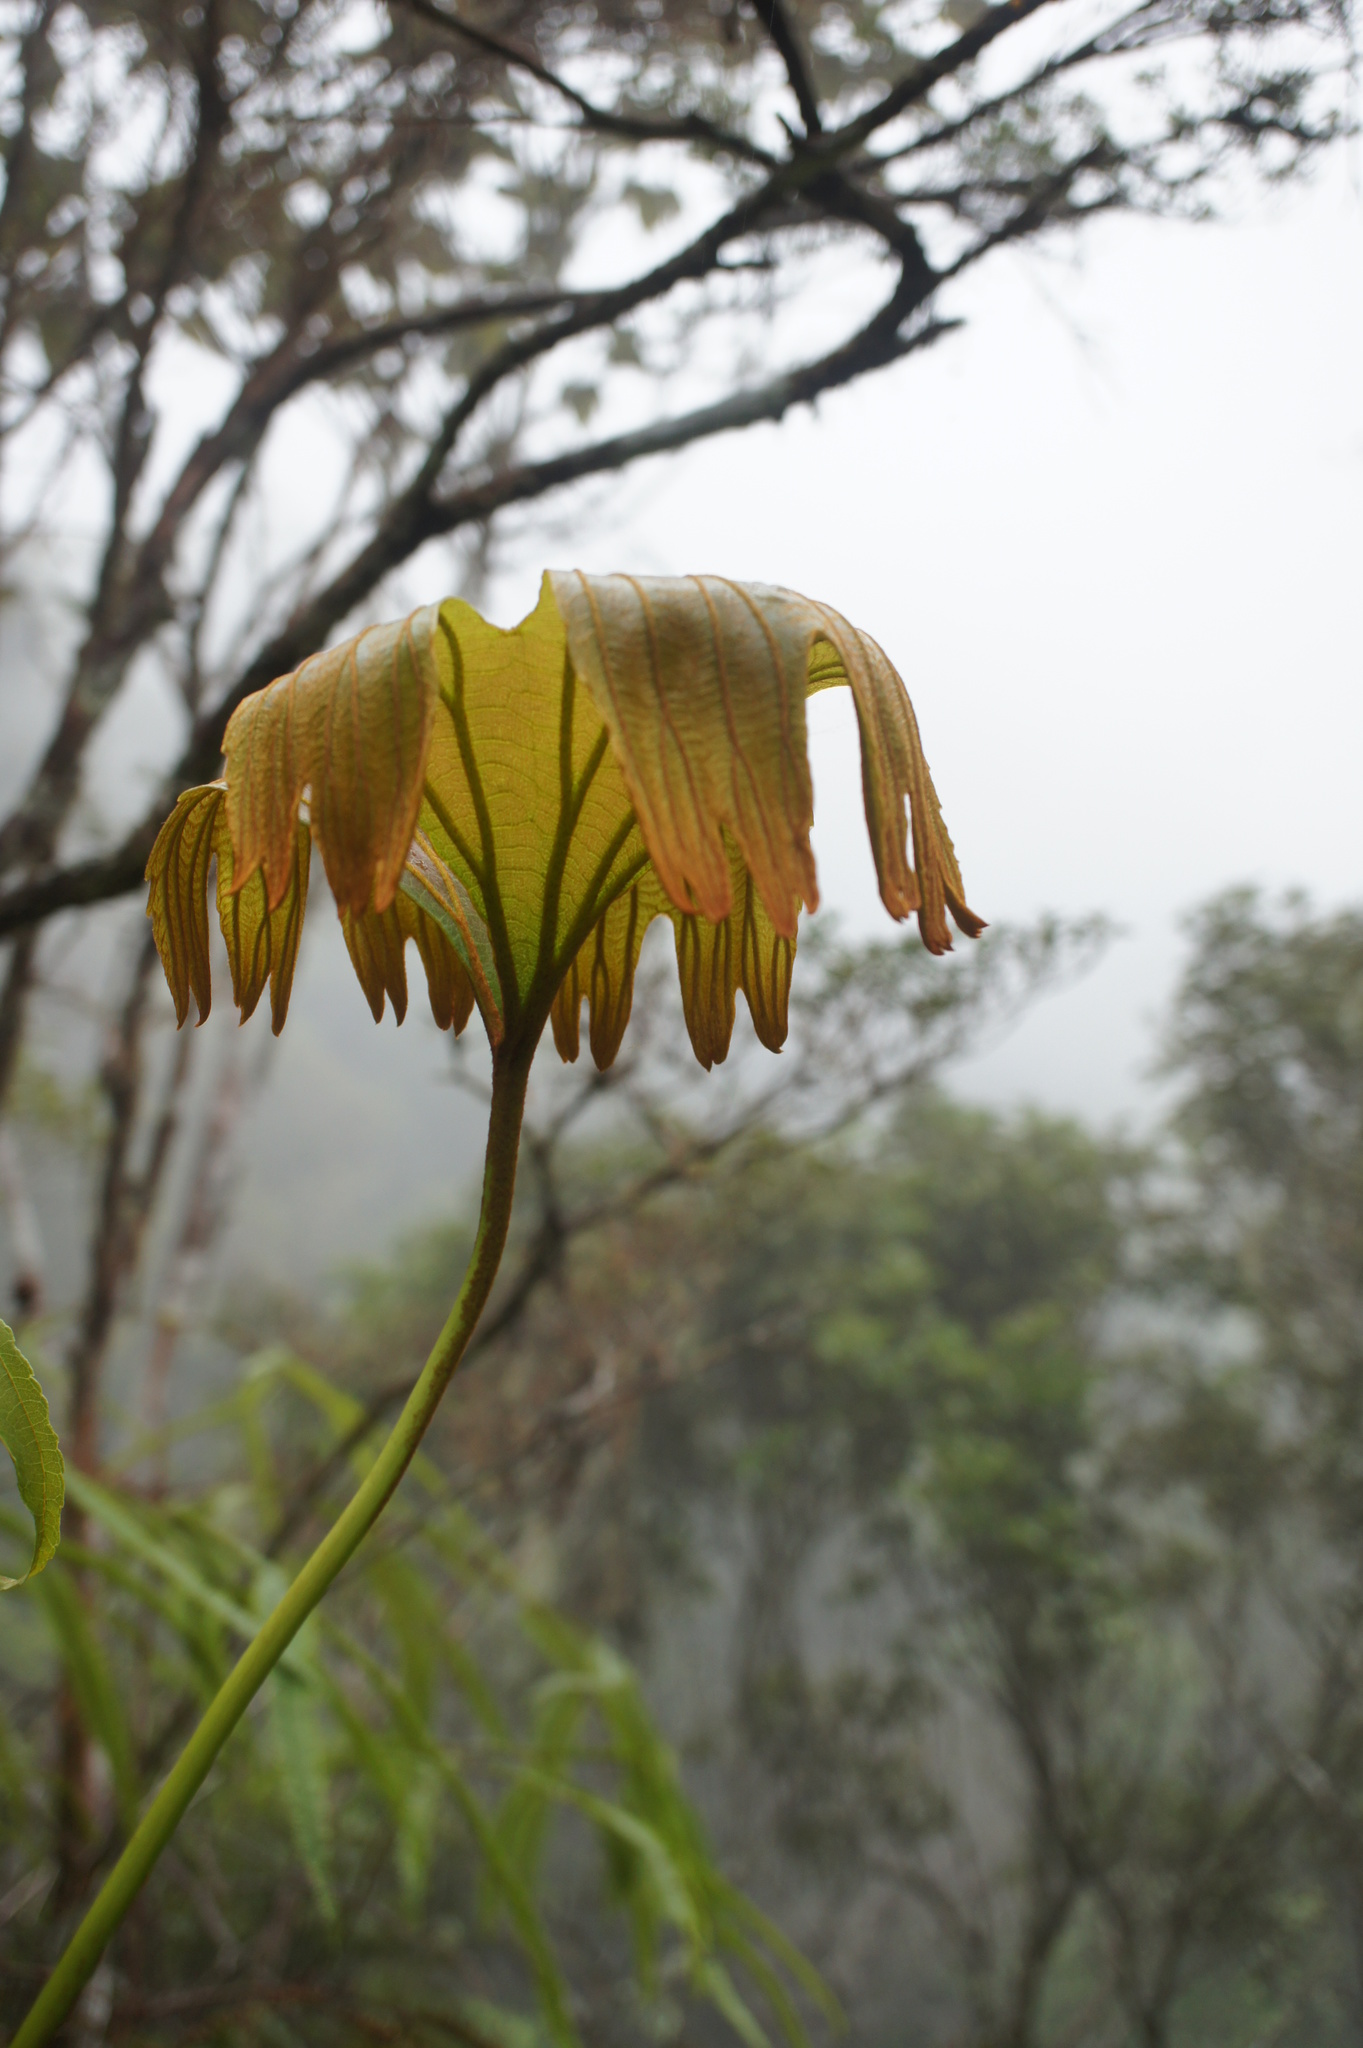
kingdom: Plantae
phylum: Tracheophyta
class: Polypodiopsida
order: Gleicheniales
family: Dipteridaceae
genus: Dipteris
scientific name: Dipteris conjugata
